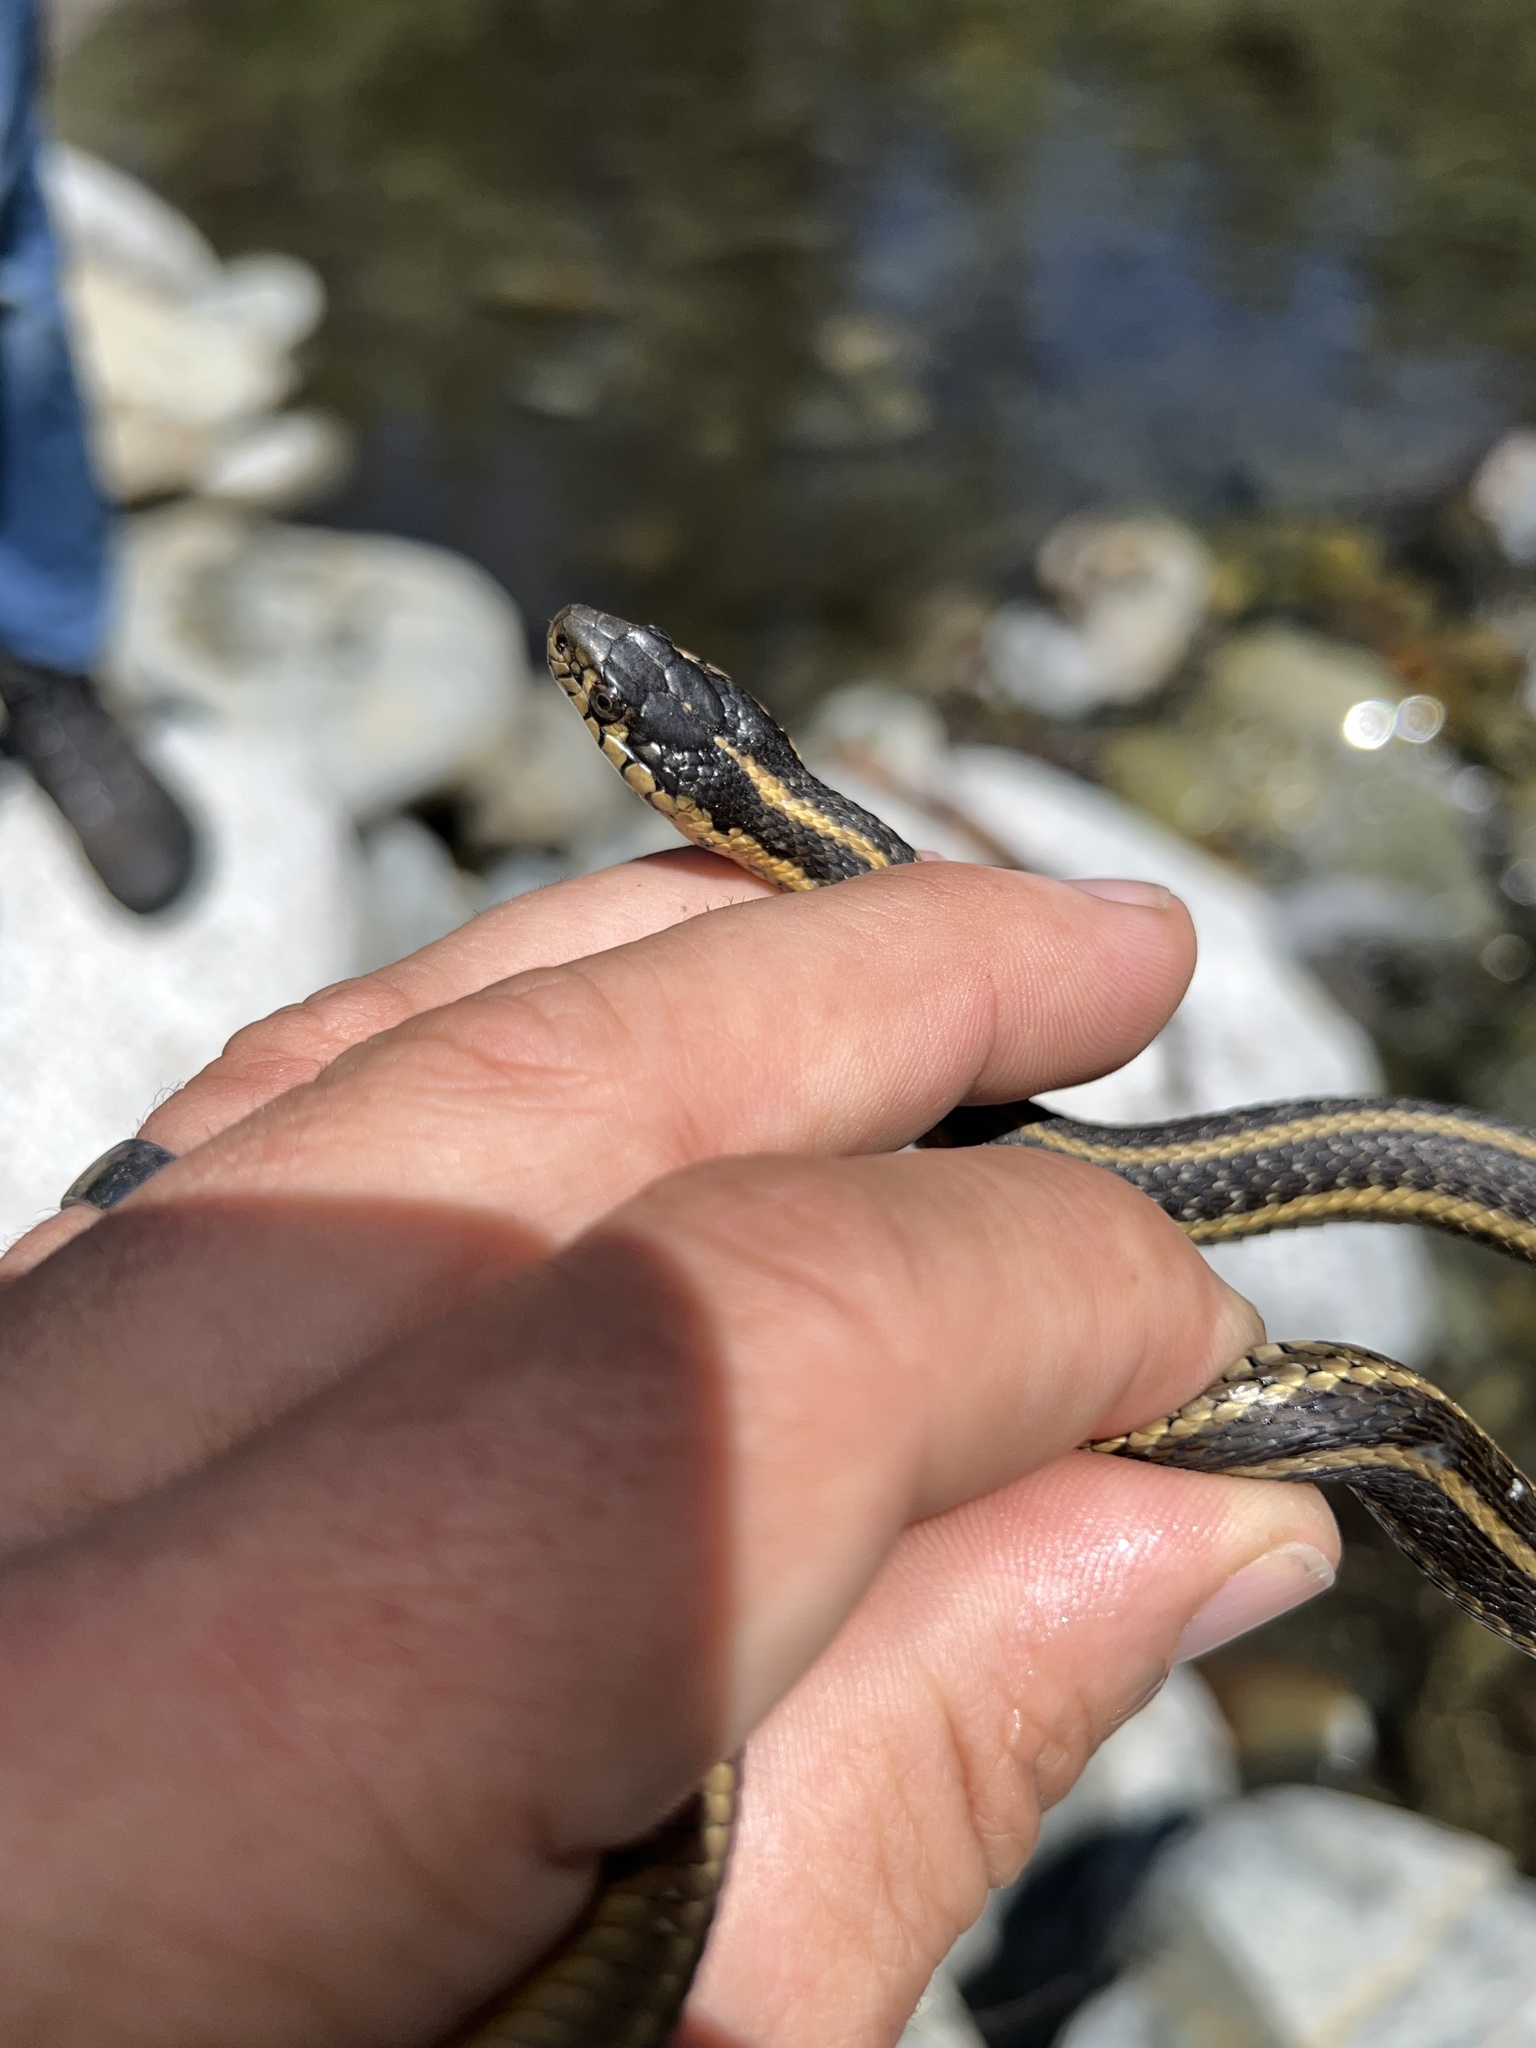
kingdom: Animalia
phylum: Chordata
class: Squamata
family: Colubridae
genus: Thamnophis
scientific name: Thamnophis atratus
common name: Pacific coast aquatic garter snake
